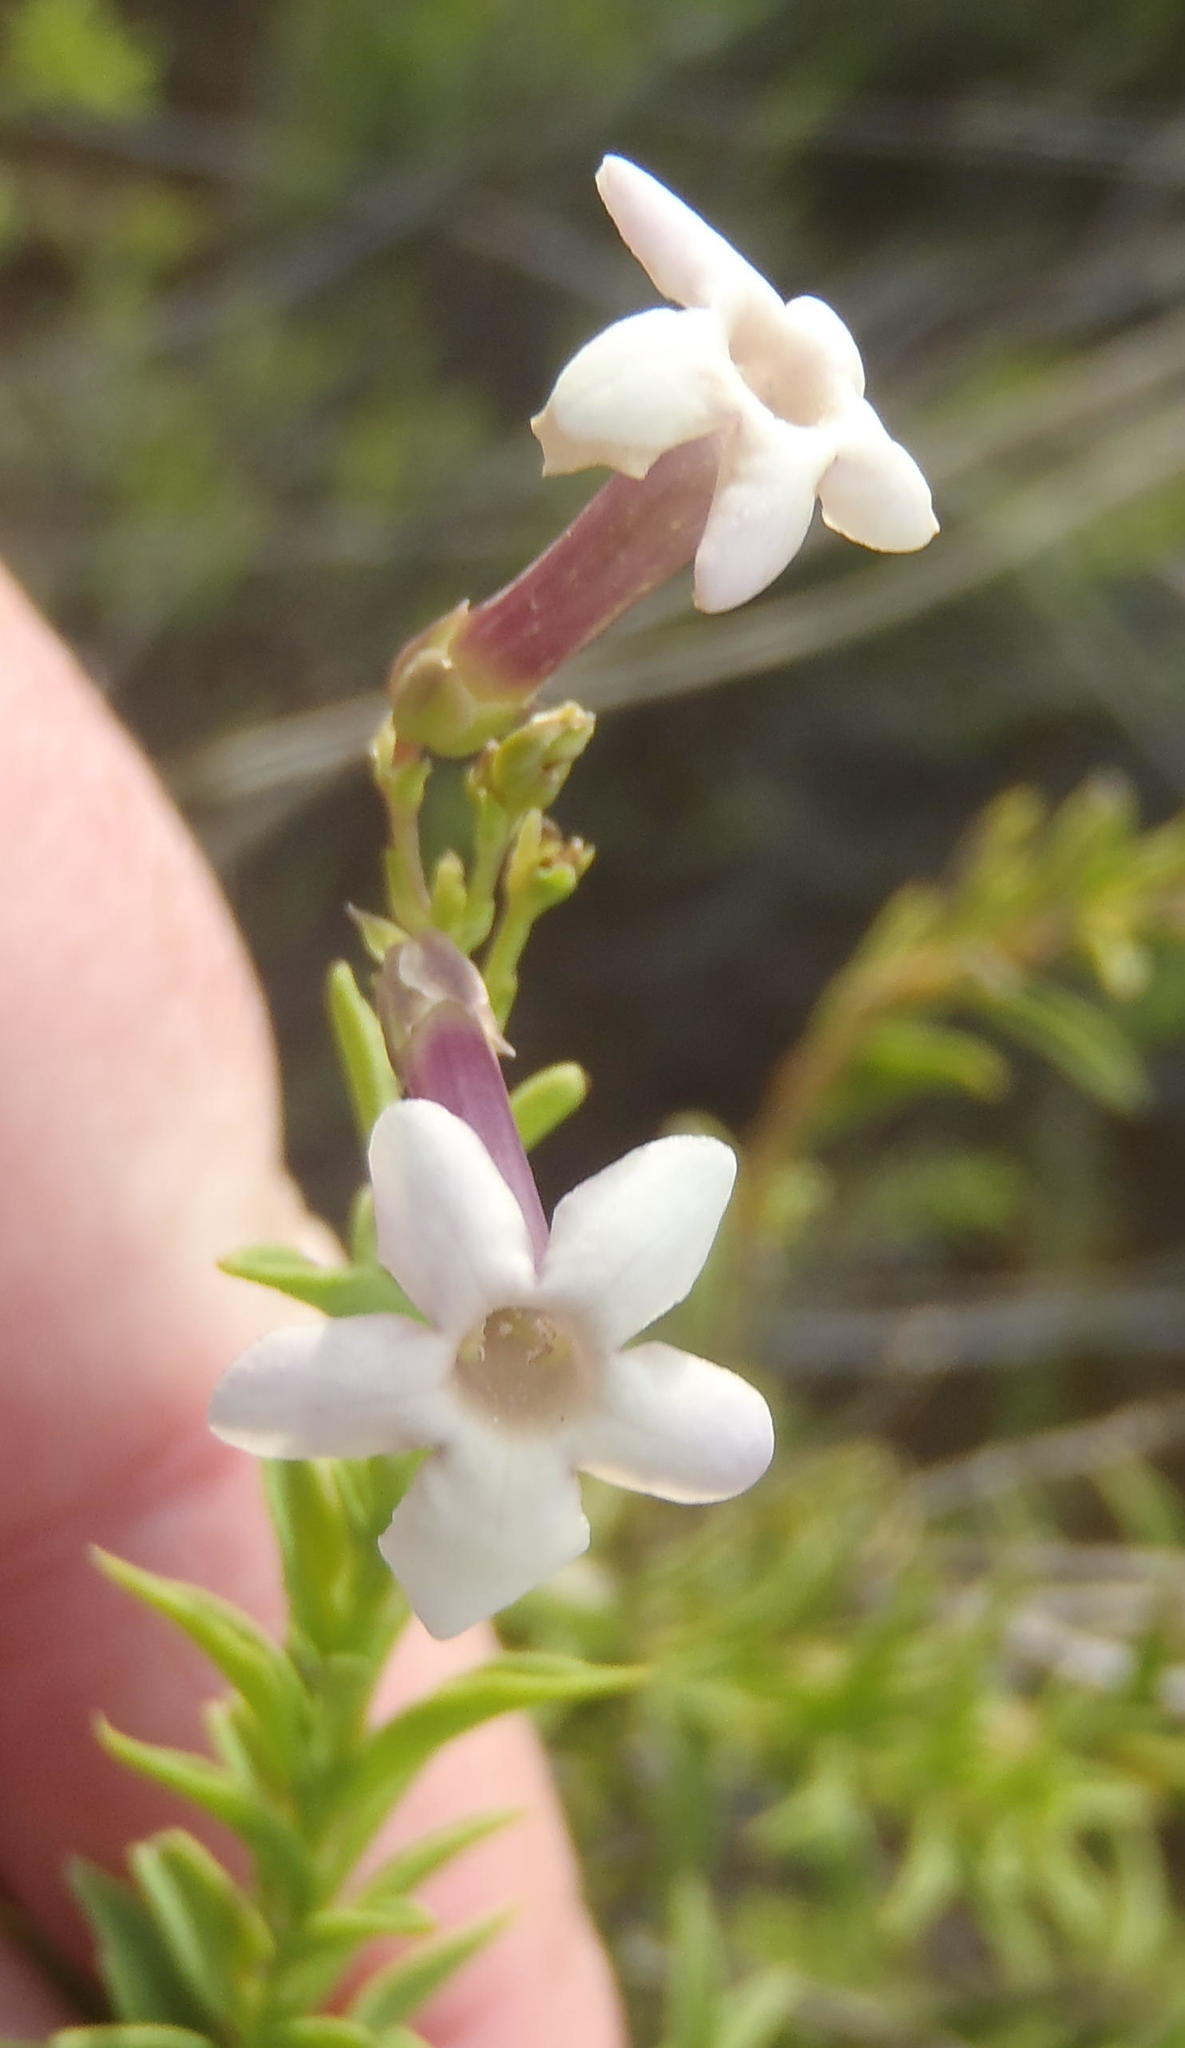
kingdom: Plantae
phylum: Tracheophyta
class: Magnoliopsida
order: Lamiales
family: Scrophulariaceae
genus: Freylinia
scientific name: Freylinia densiflora
